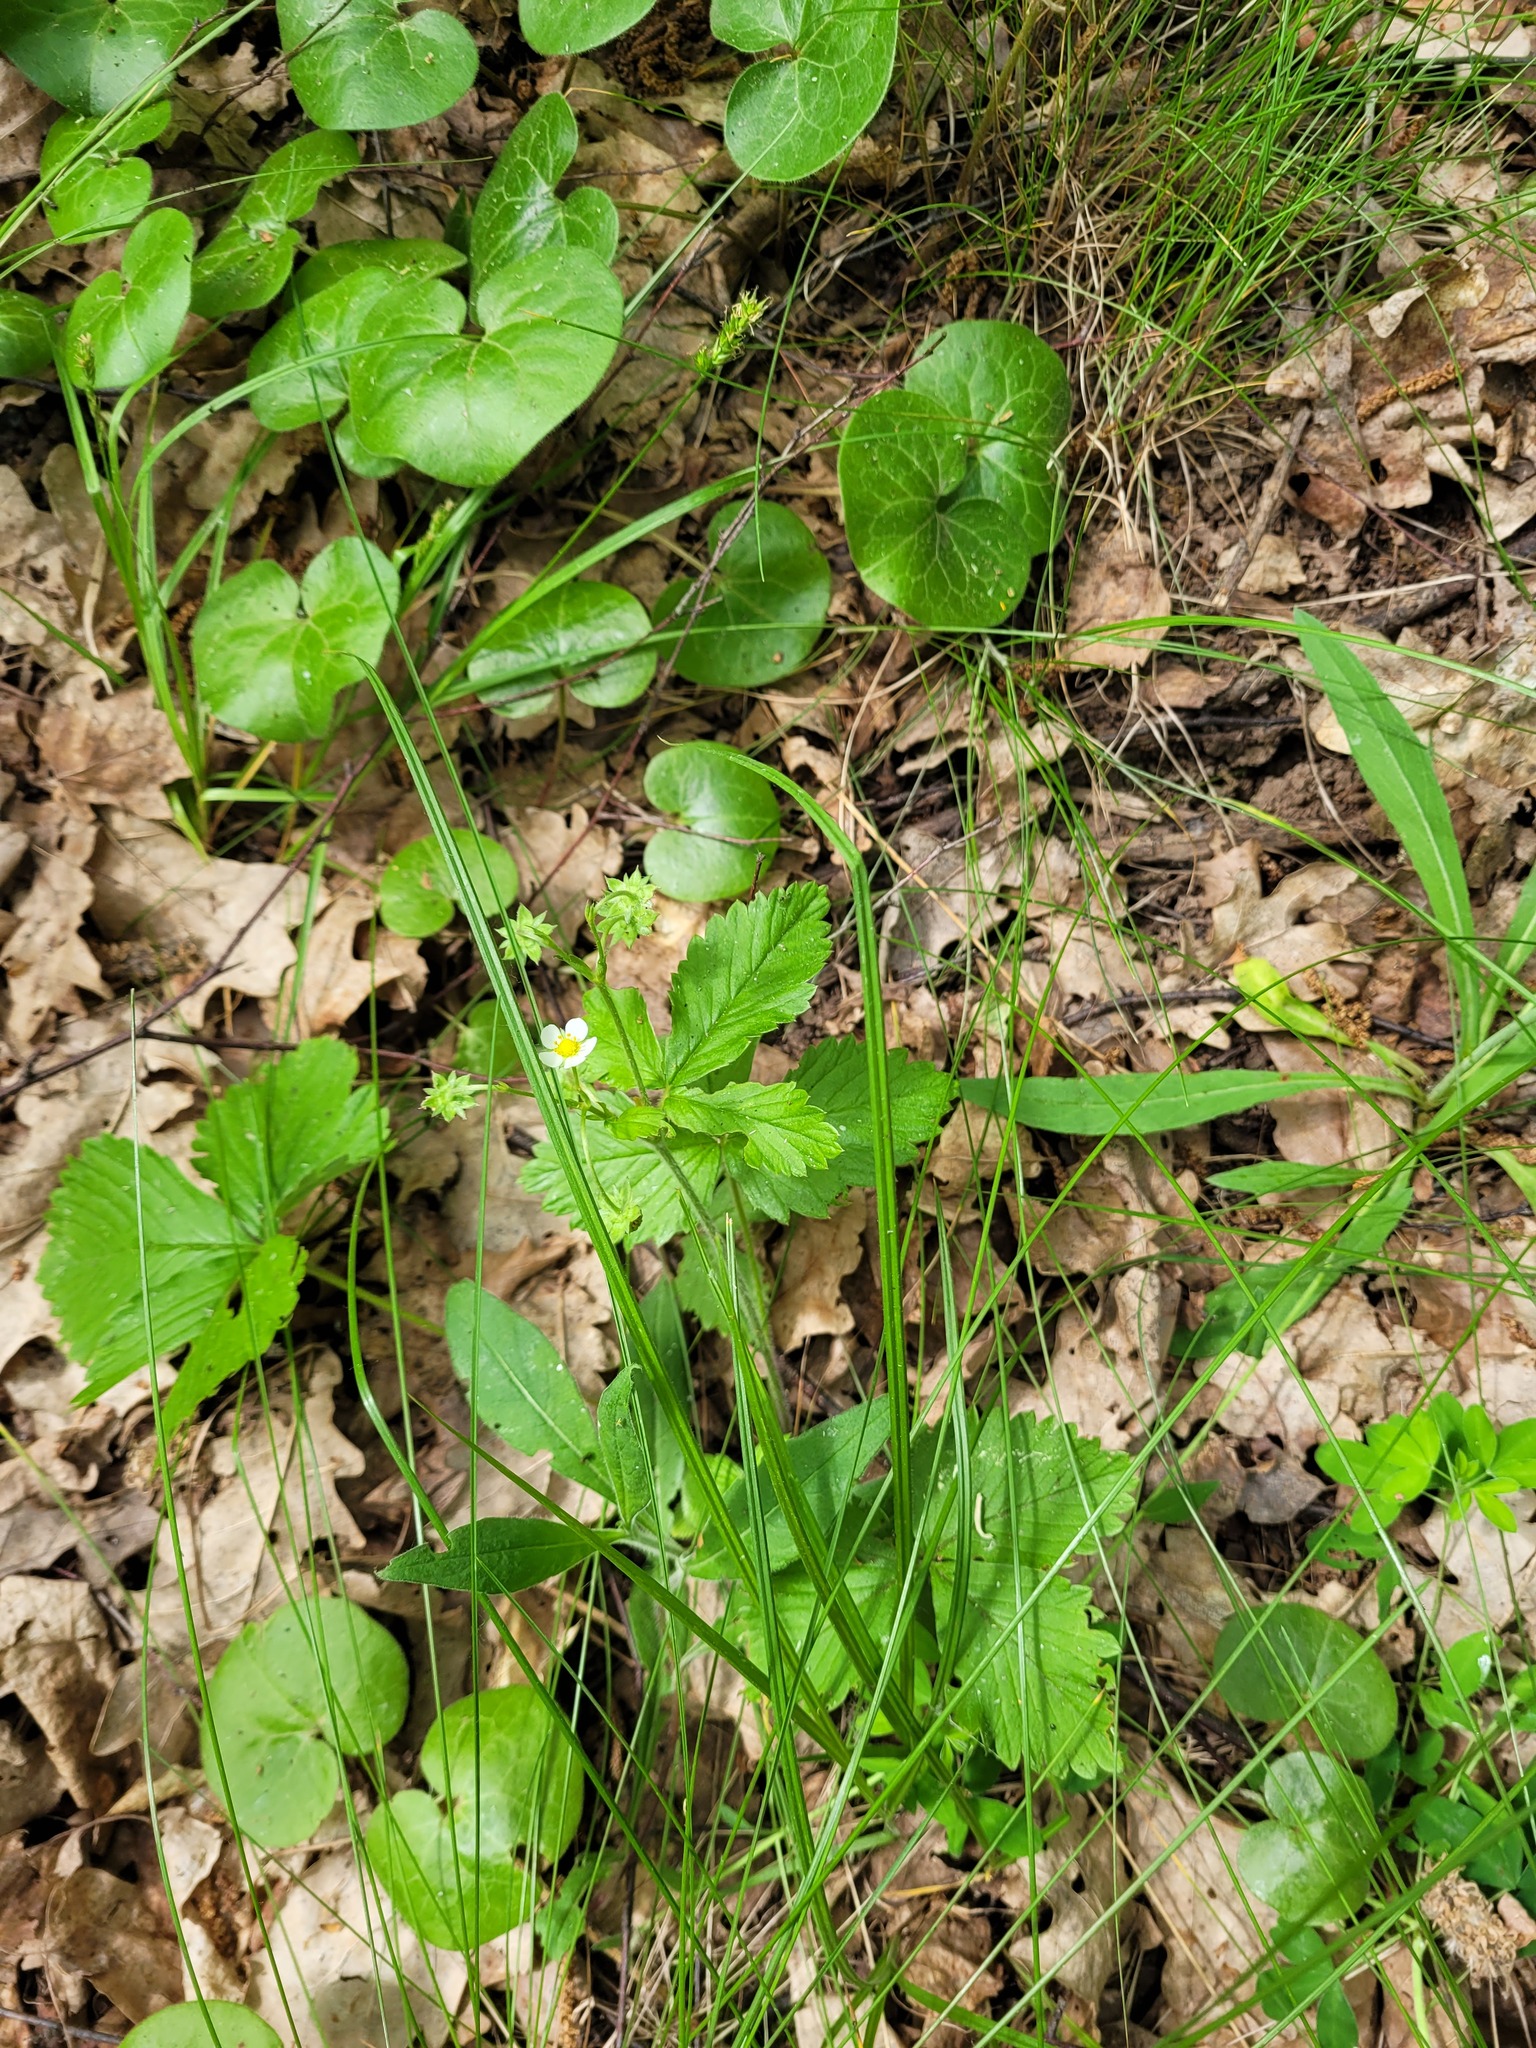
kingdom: Plantae
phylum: Tracheophyta
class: Magnoliopsida
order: Rosales
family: Rosaceae
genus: Fragaria
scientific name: Fragaria vesca
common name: Wild strawberry
